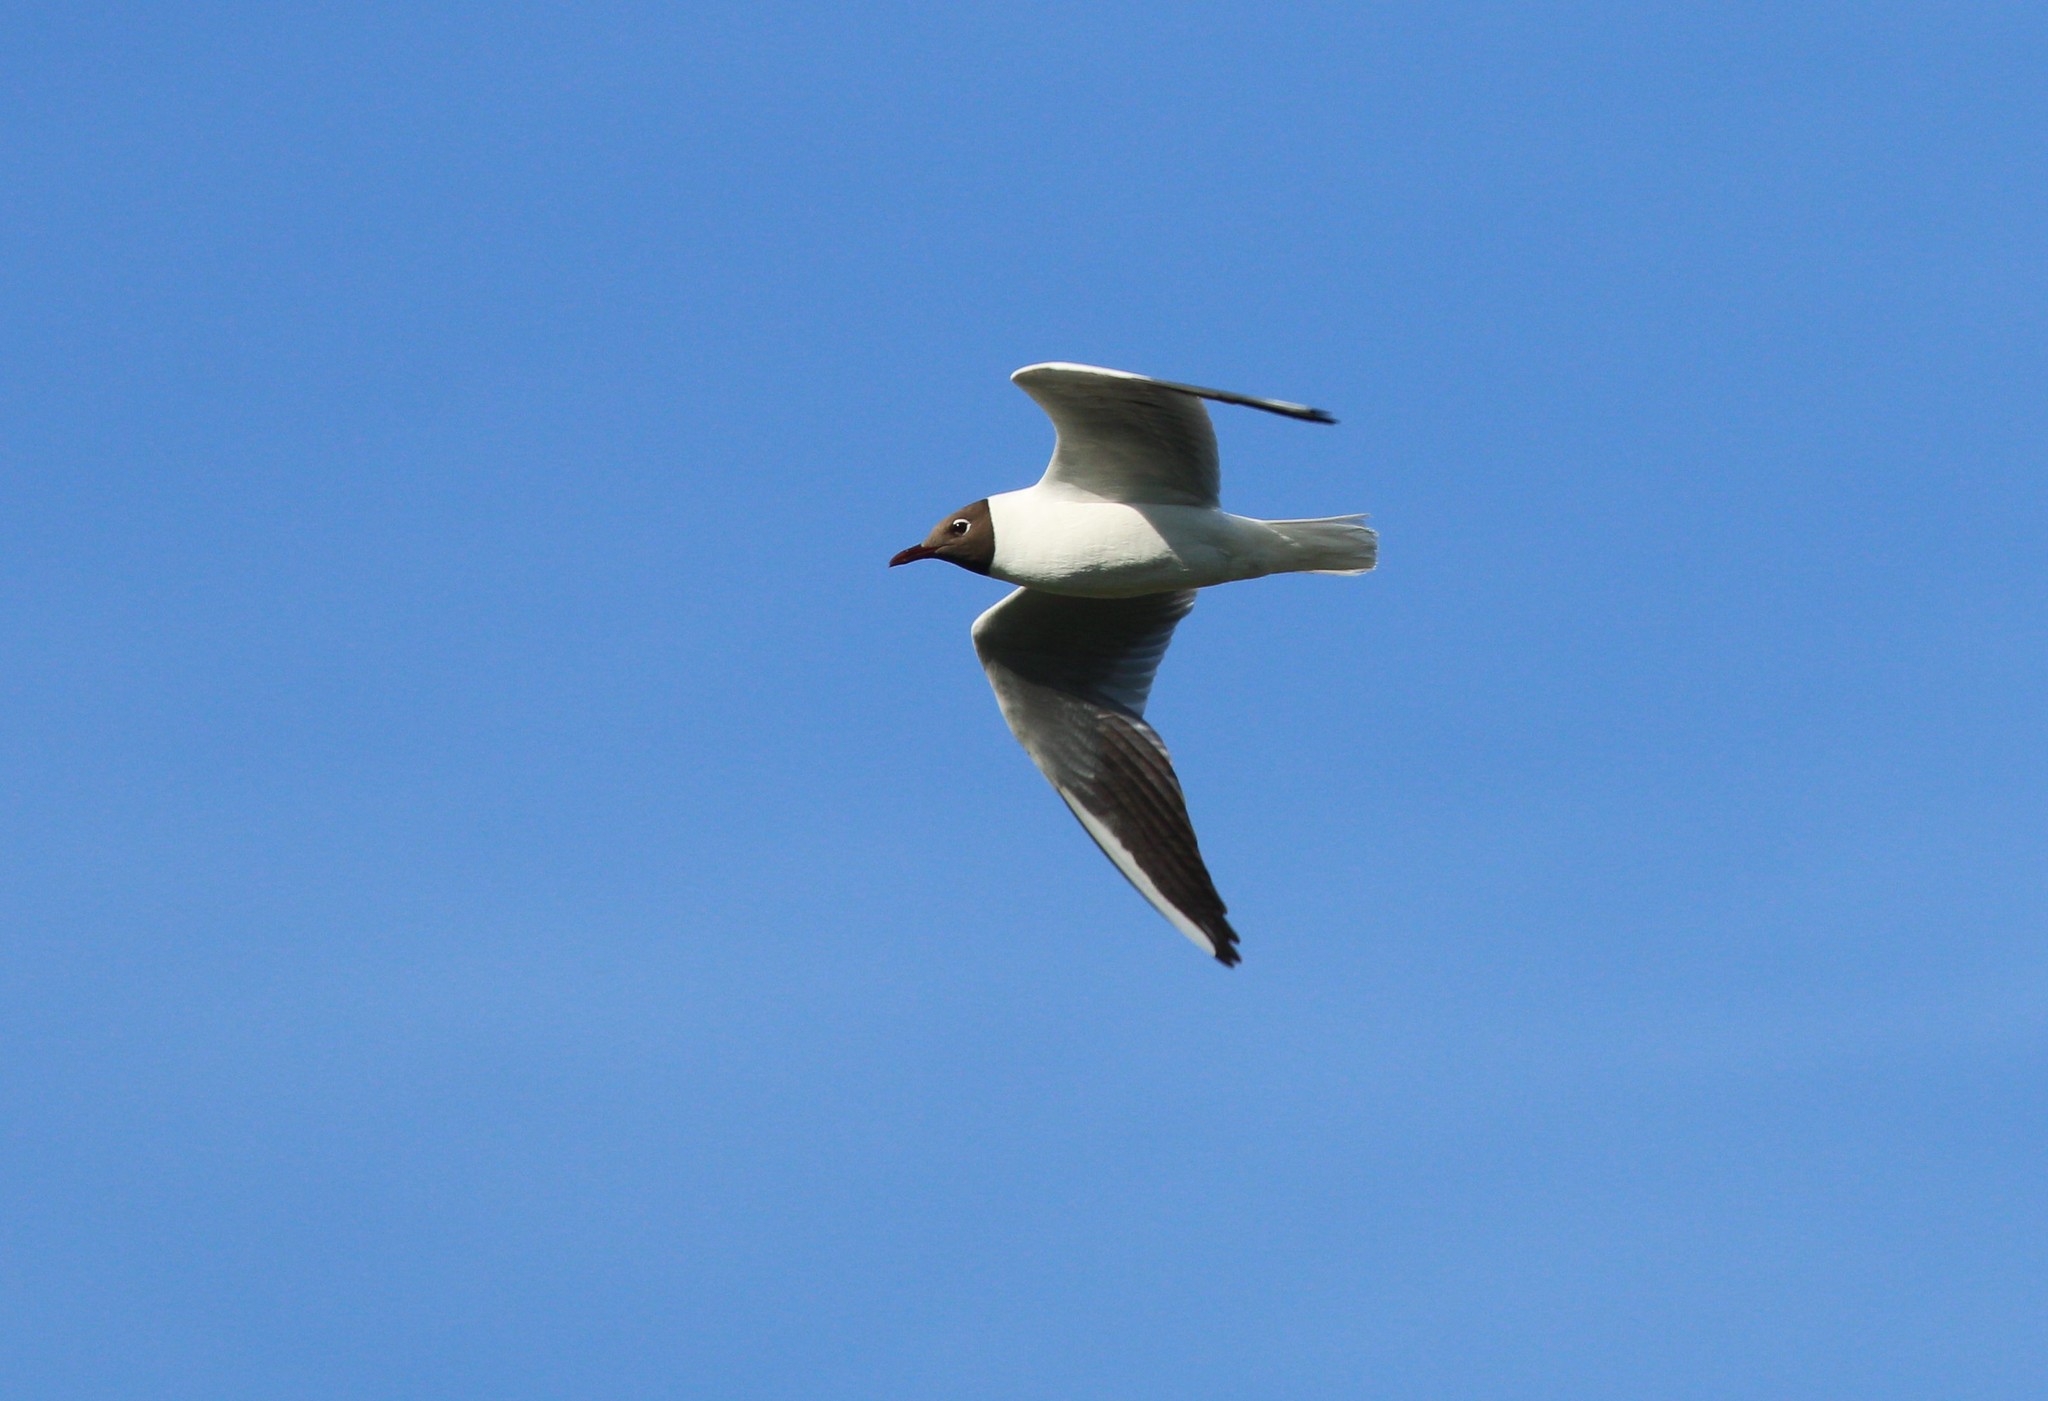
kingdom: Animalia
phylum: Chordata
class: Aves
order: Charadriiformes
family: Laridae
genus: Chroicocephalus
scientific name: Chroicocephalus ridibundus
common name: Black-headed gull
